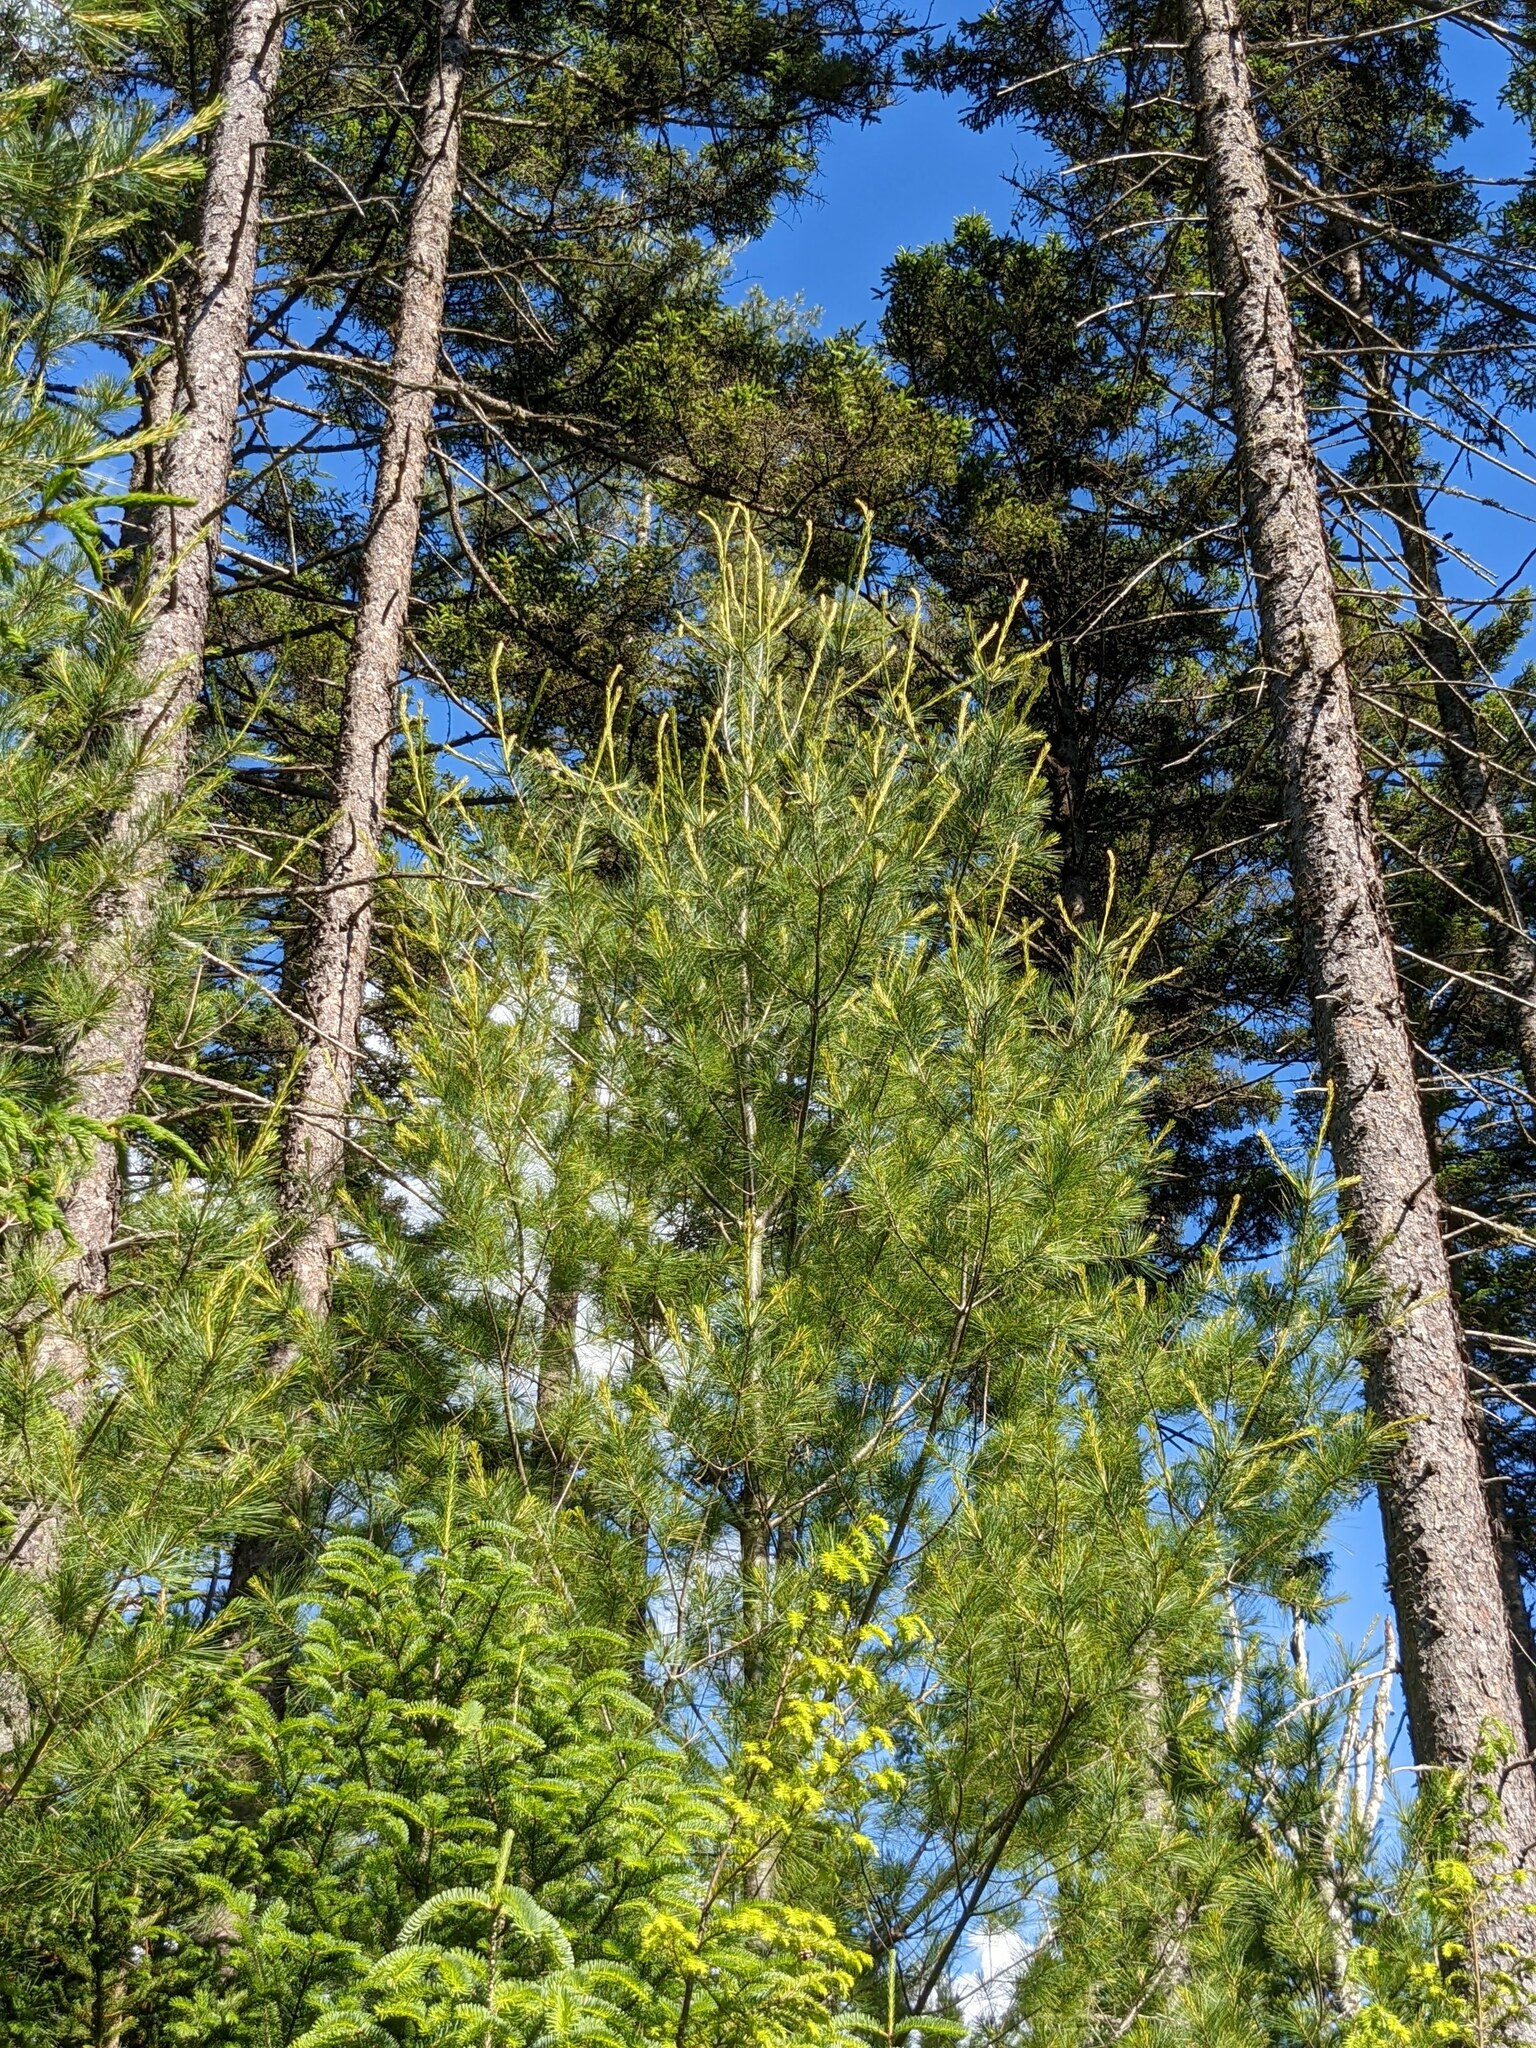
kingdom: Plantae
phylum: Tracheophyta
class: Pinopsida
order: Pinales
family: Pinaceae
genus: Pinus
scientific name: Pinus strobus
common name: Weymouth pine
